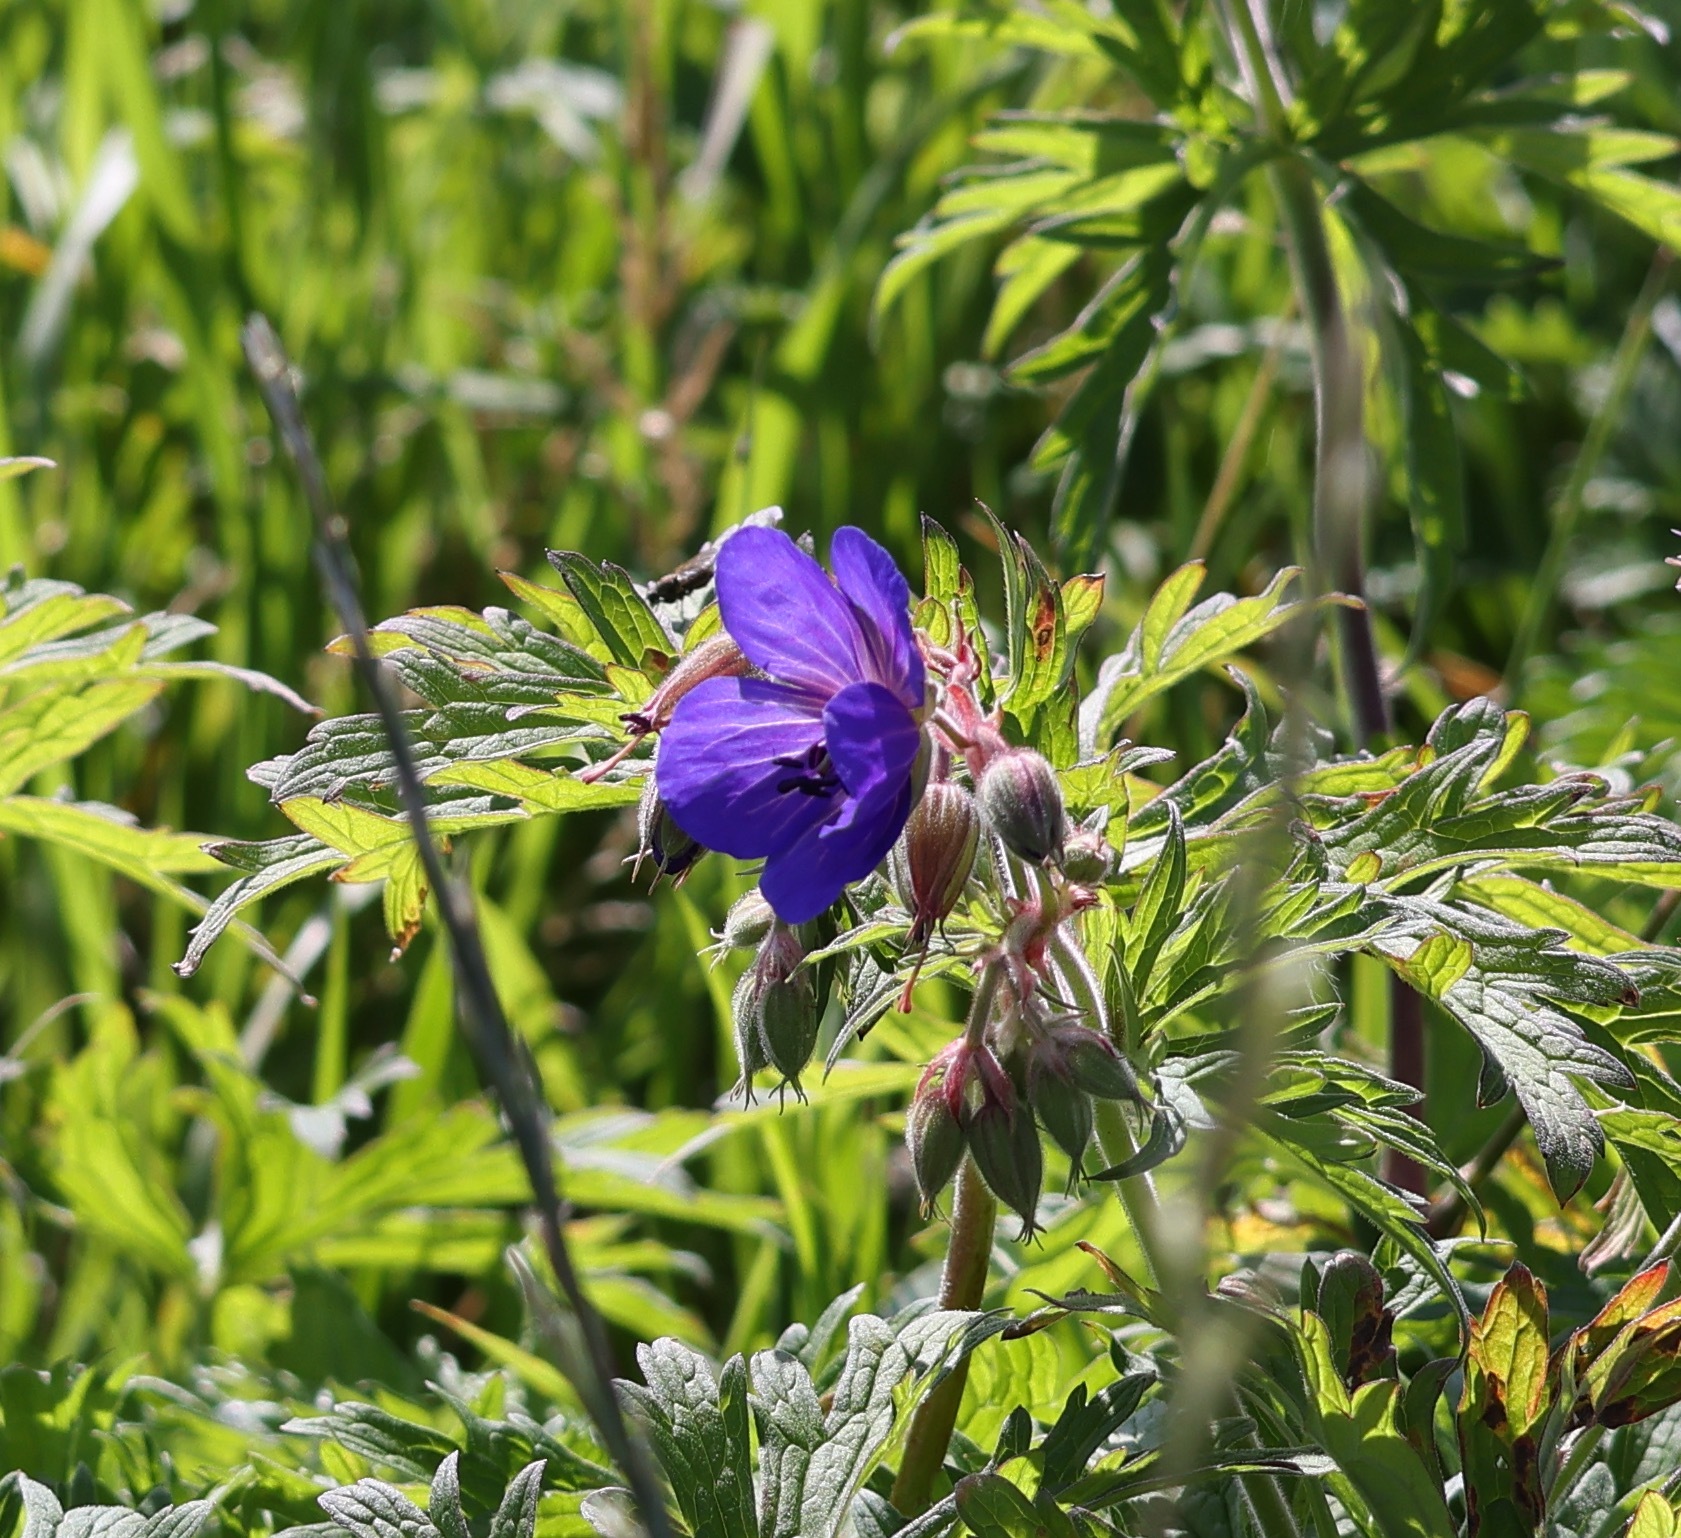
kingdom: Plantae
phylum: Tracheophyta
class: Magnoliopsida
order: Geraniales
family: Geraniaceae
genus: Geranium
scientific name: Geranium pratense
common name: Meadow crane's-bill
